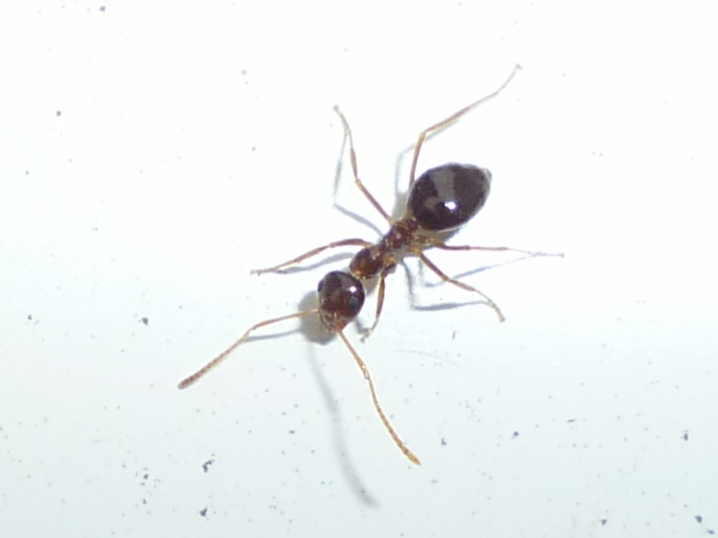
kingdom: Animalia
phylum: Arthropoda
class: Insecta
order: Hymenoptera
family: Formicidae
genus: Prenolepis
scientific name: Prenolepis imparis
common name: Small honey ant
